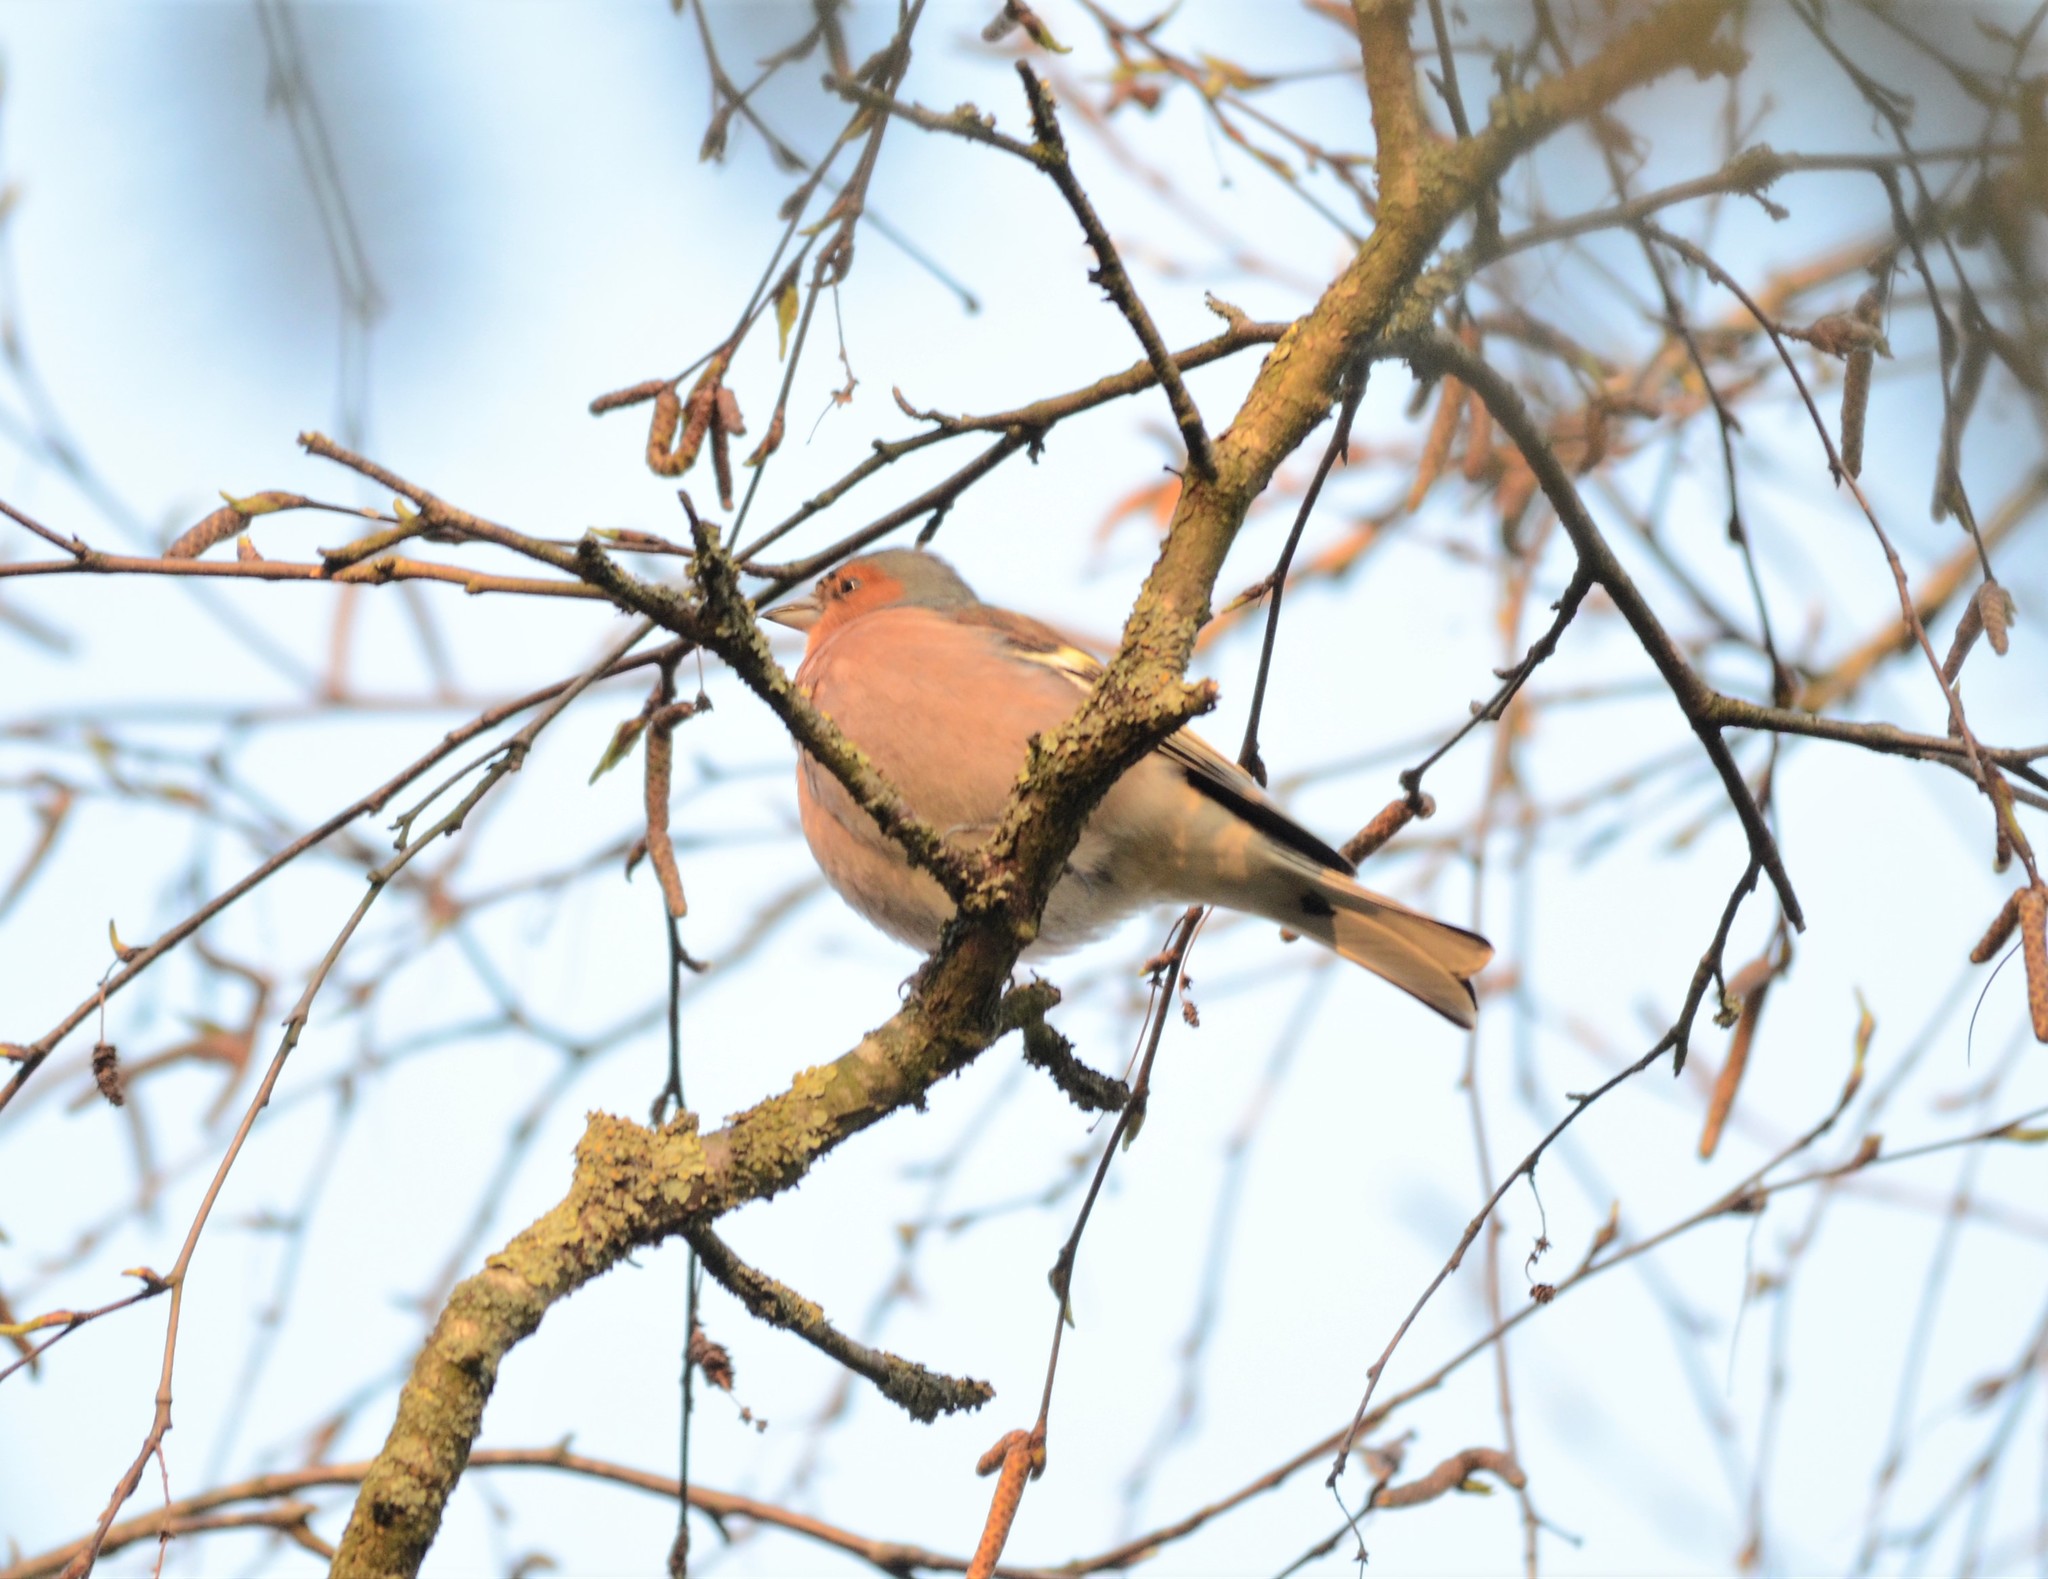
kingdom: Animalia
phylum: Chordata
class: Aves
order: Passeriformes
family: Fringillidae
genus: Fringilla
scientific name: Fringilla coelebs
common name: Common chaffinch
